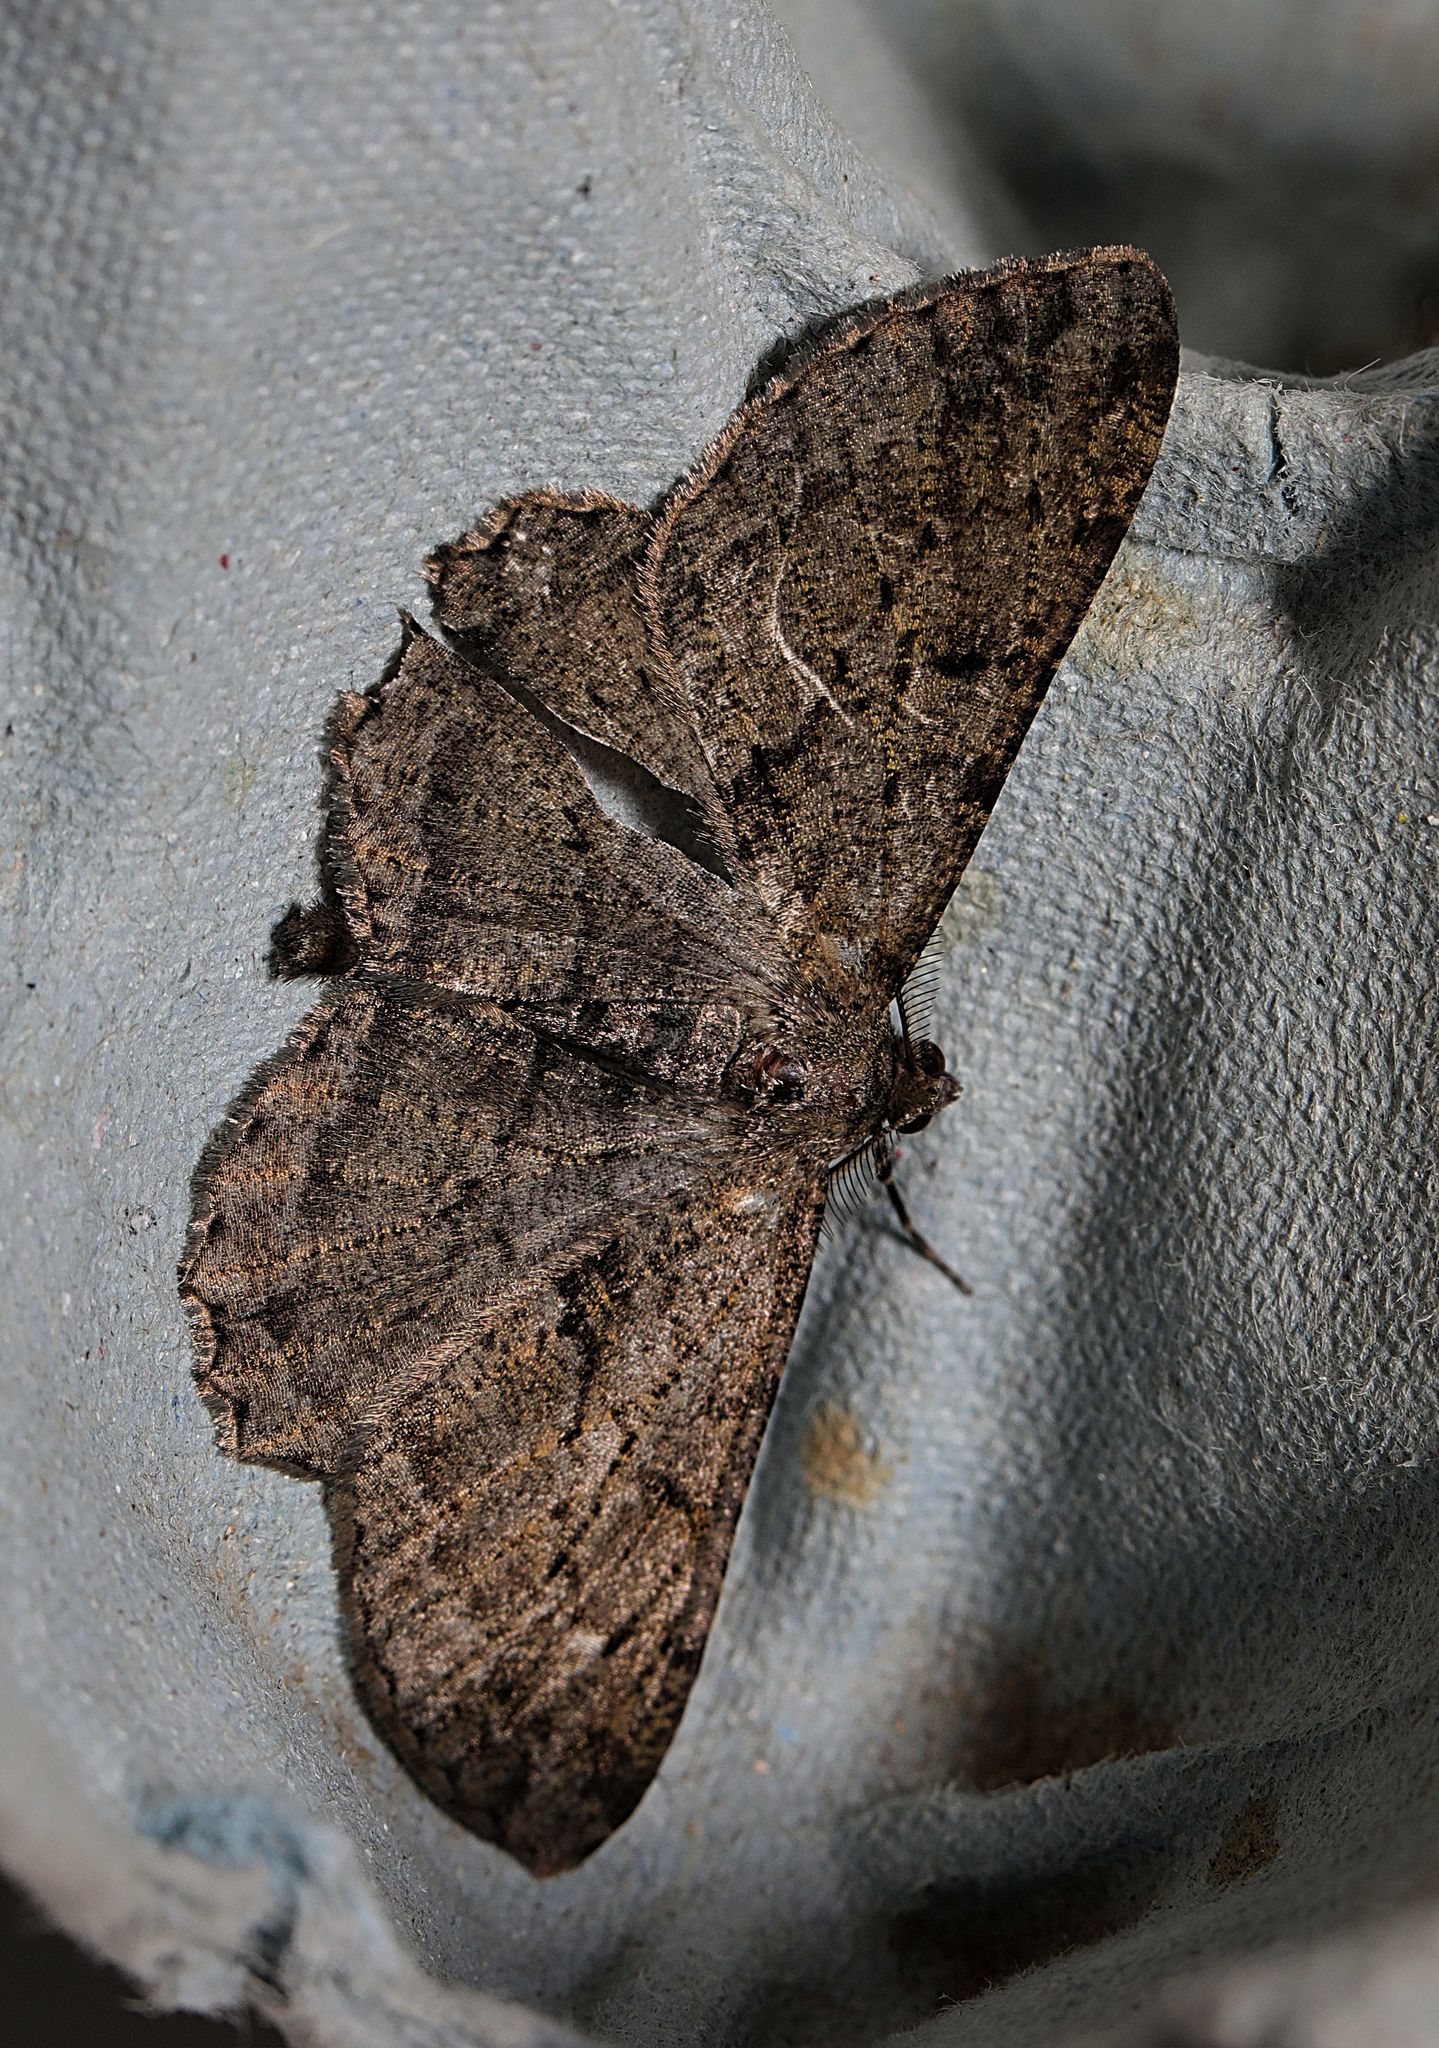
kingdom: Animalia
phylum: Arthropoda
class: Insecta
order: Lepidoptera
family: Geometridae
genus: Peribatodes
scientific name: Peribatodes rhomboidaria
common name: Willow beauty
